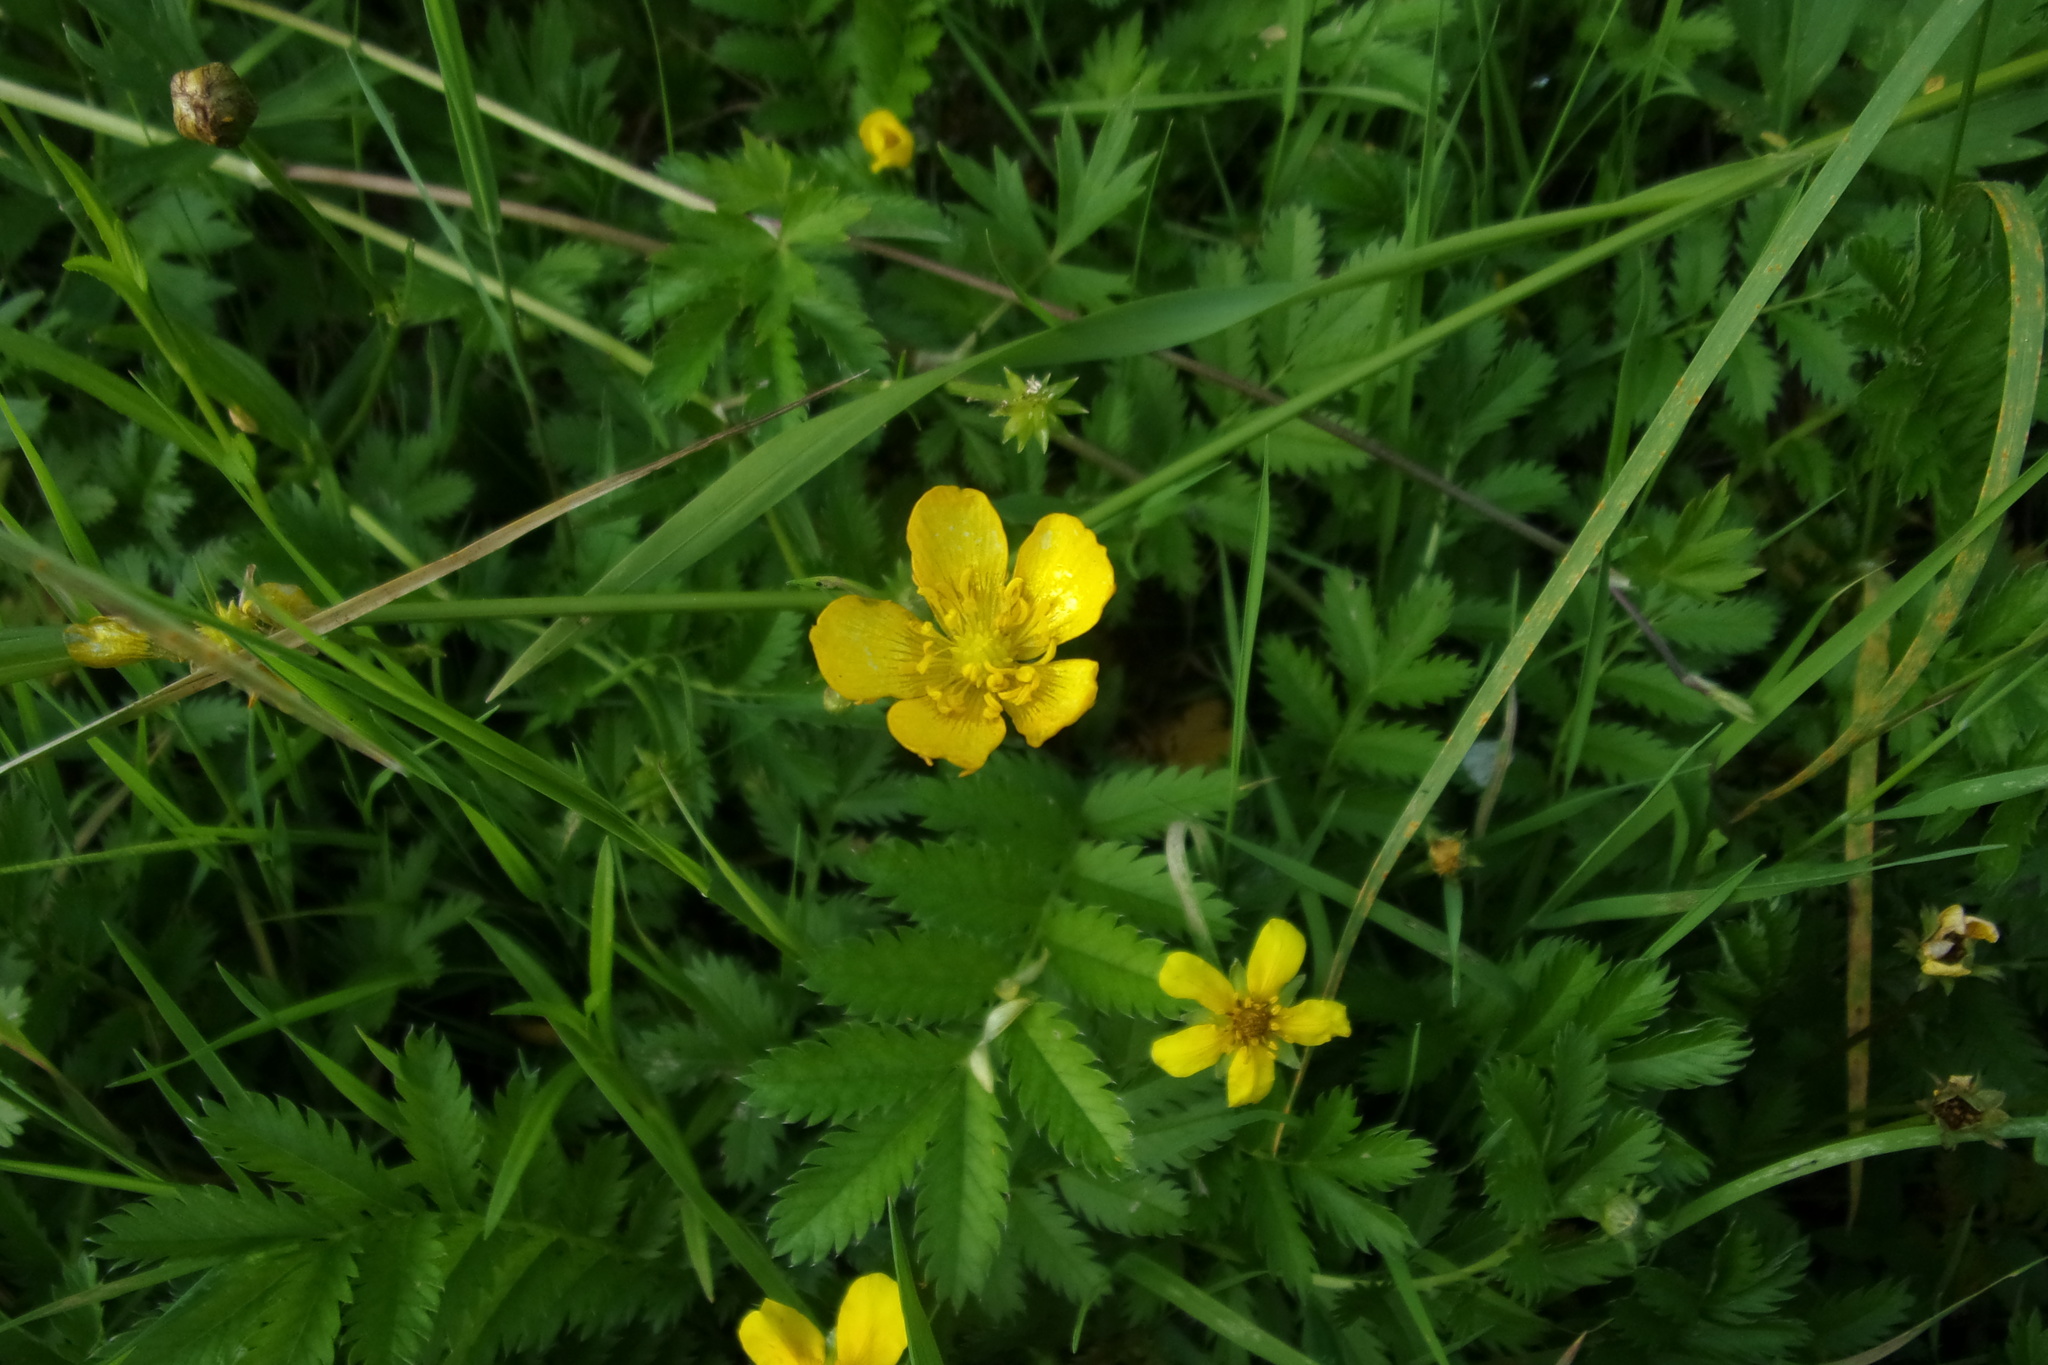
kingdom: Plantae
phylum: Tracheophyta
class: Magnoliopsida
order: Rosales
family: Rosaceae
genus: Argentina
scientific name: Argentina anserina
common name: Common silverweed
